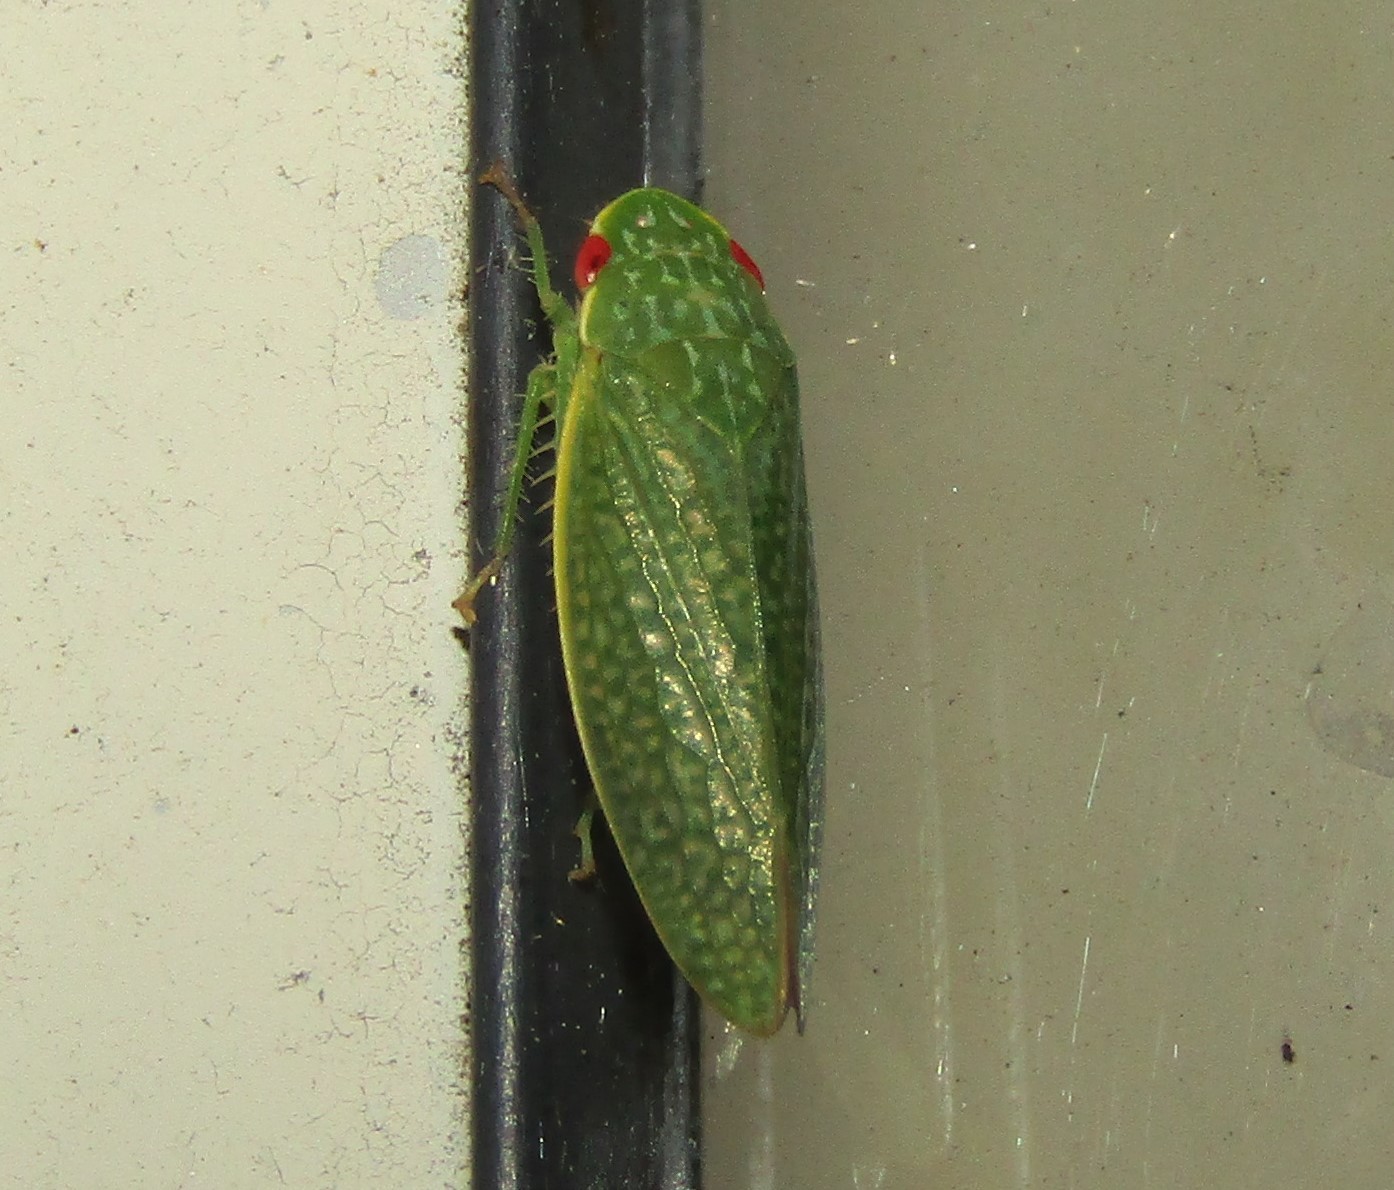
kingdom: Animalia
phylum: Arthropoda
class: Insecta
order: Hemiptera
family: Cicadellidae
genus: Rugosana
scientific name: Rugosana querci
